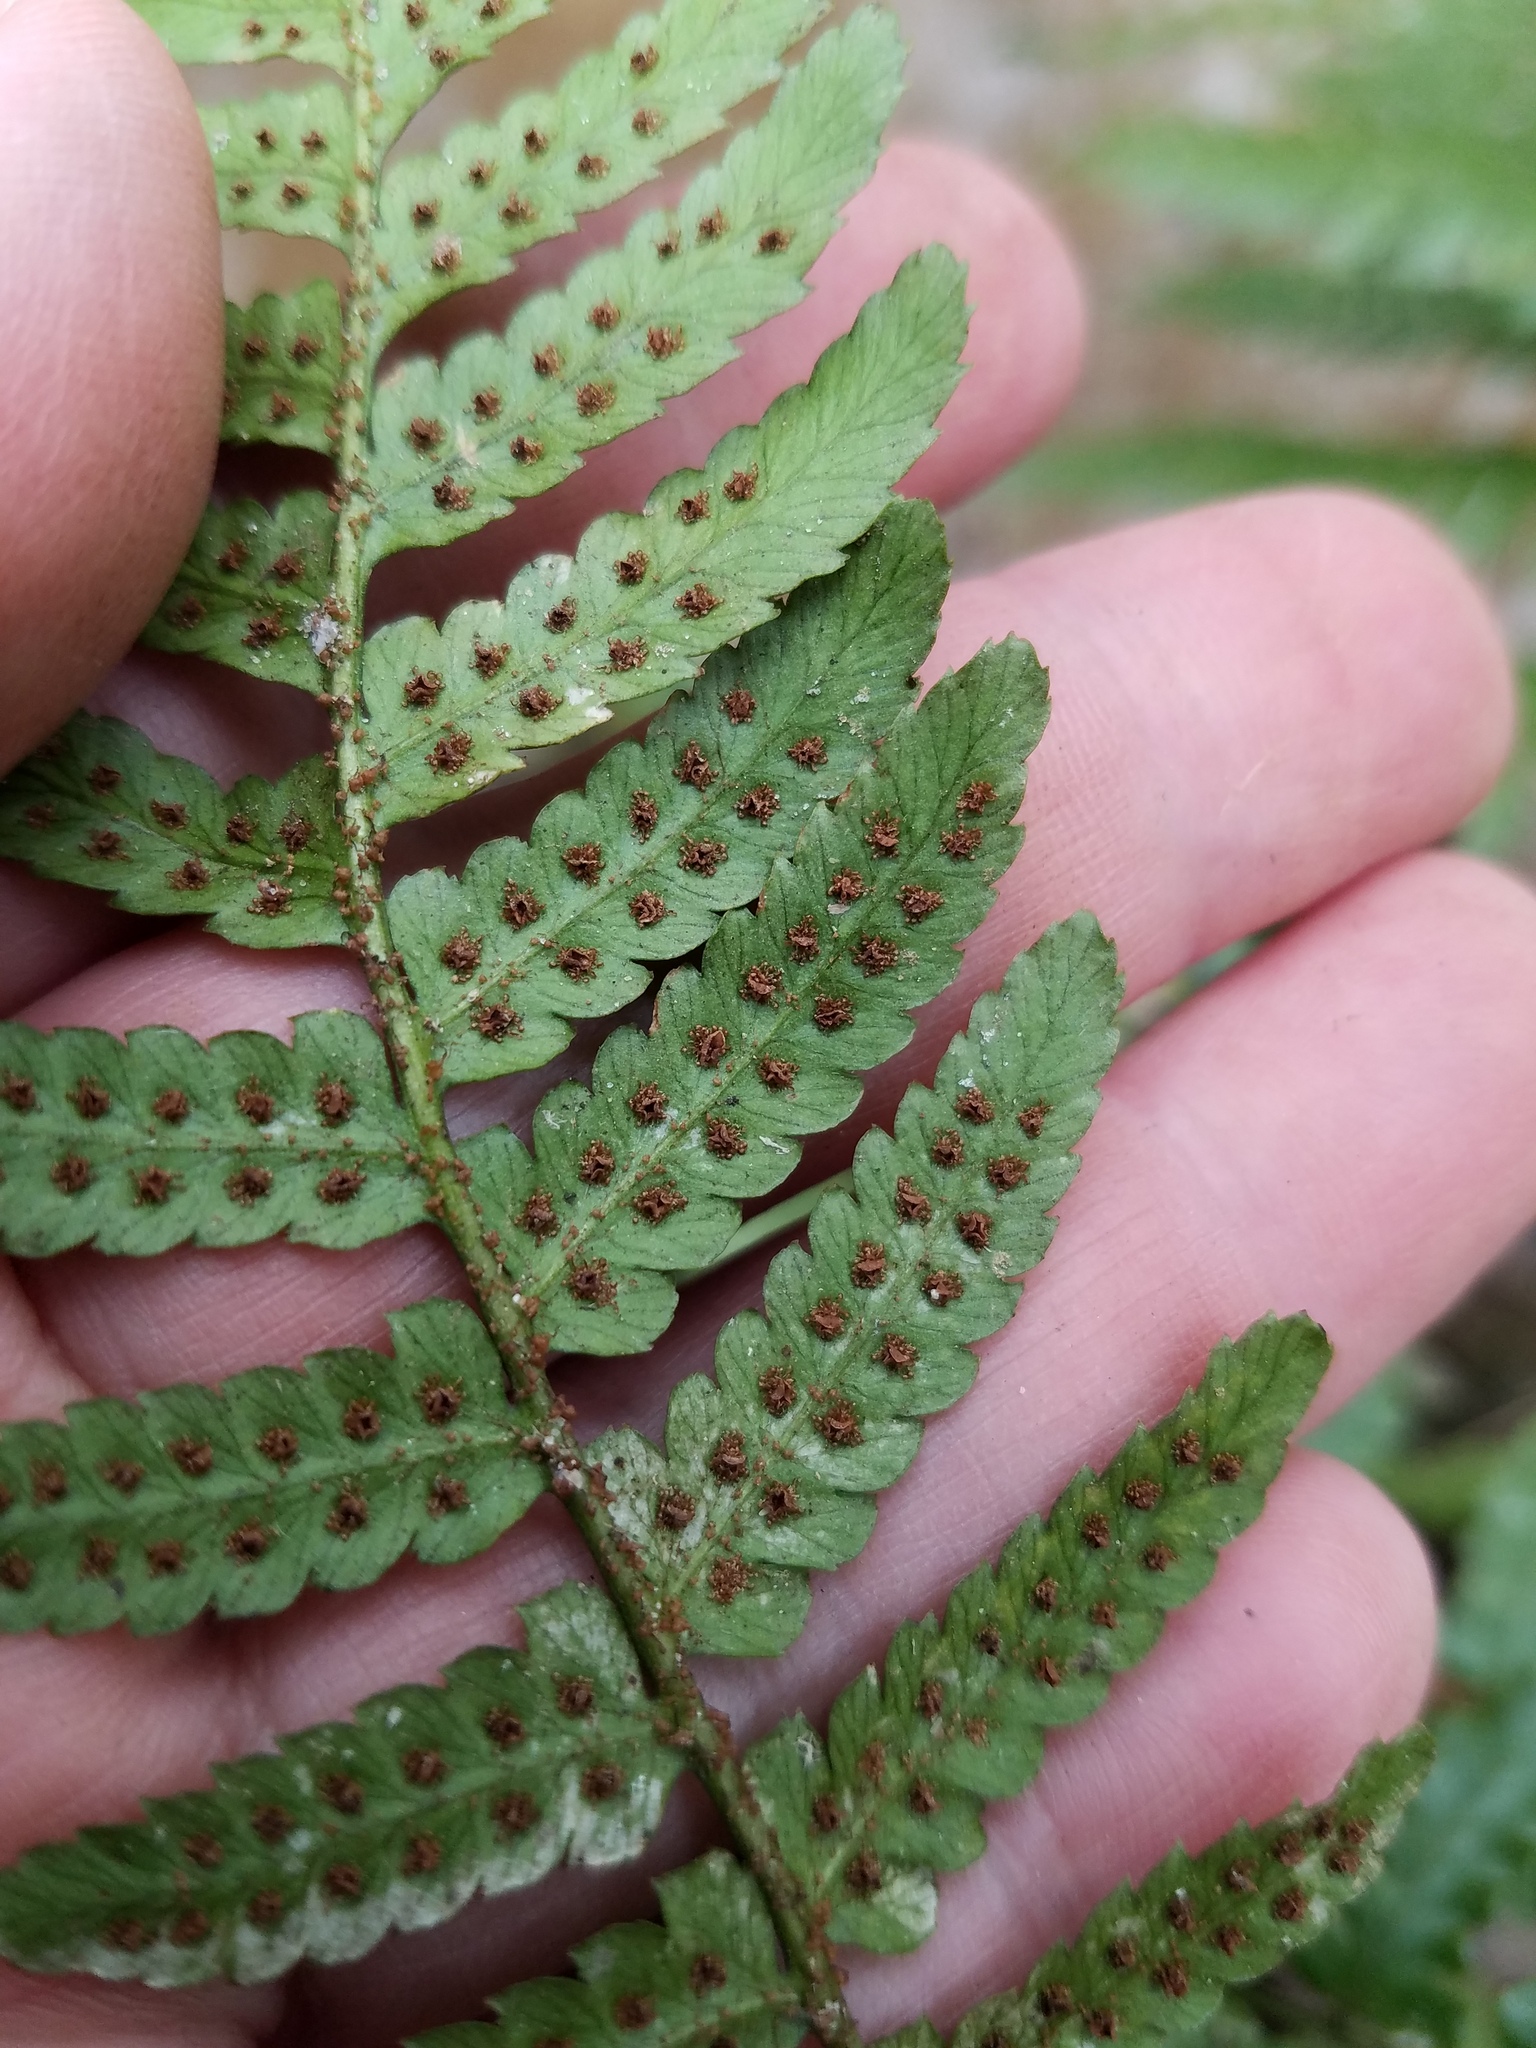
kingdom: Plantae
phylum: Tracheophyta
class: Polypodiopsida
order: Polypodiales
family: Dryopteridaceae
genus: Dryopteris
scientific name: Dryopteris erythrosora
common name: Autumn fern
